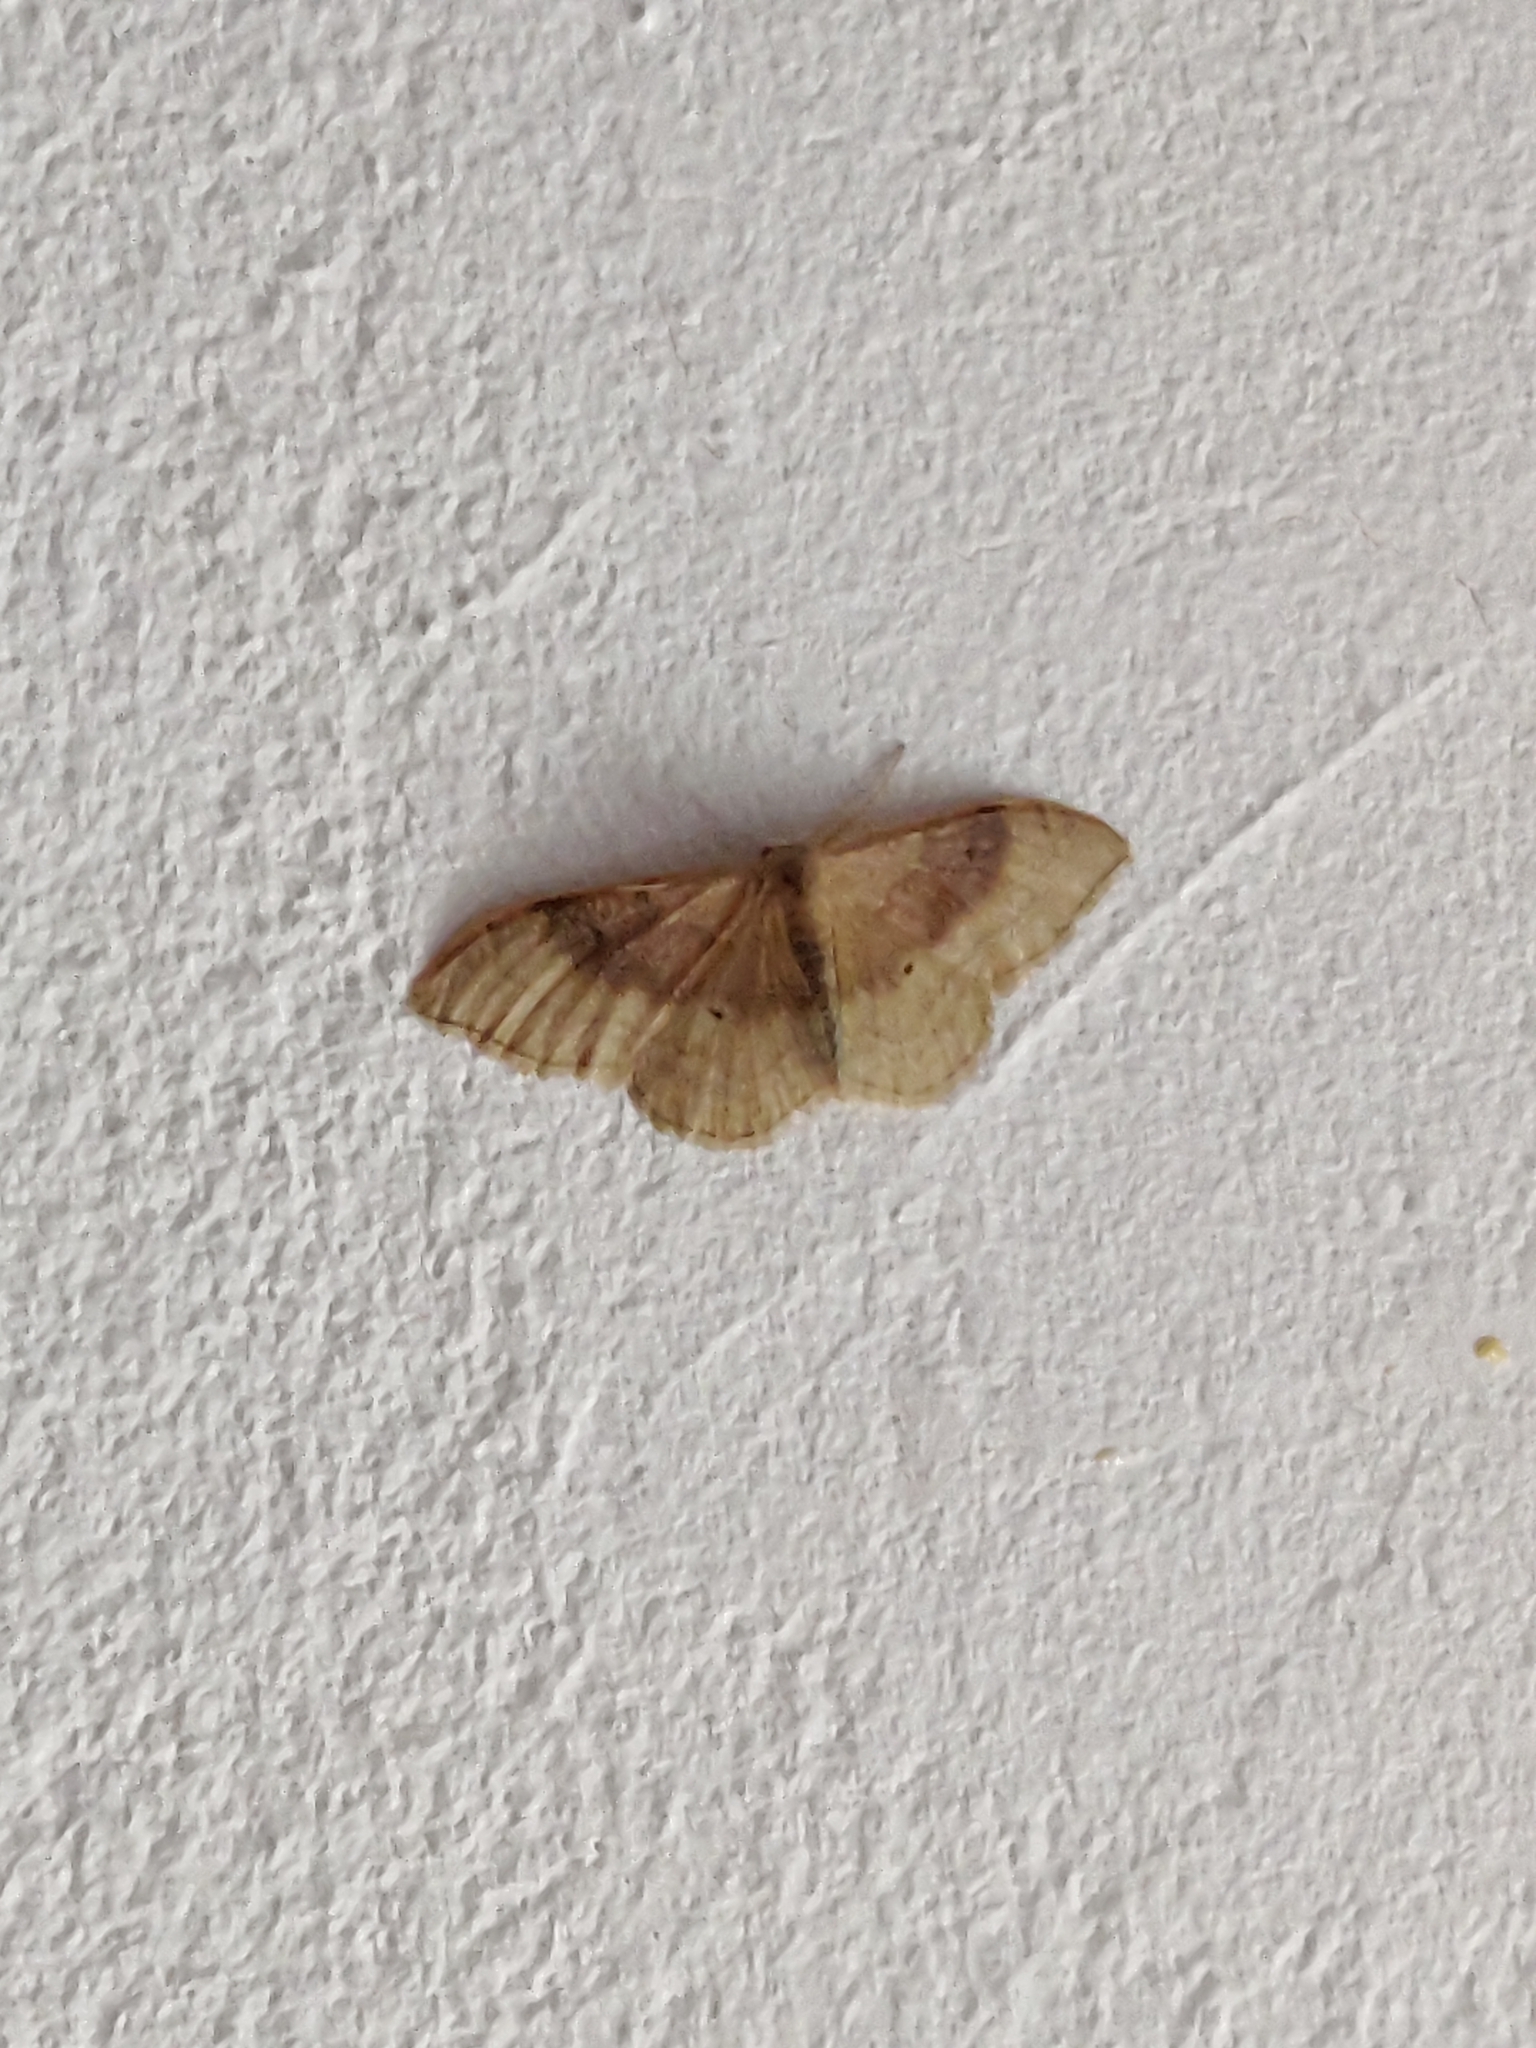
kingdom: Animalia
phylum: Arthropoda
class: Insecta
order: Lepidoptera
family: Geometridae
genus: Idaea
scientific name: Idaea degeneraria
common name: Portland ribbon wave
